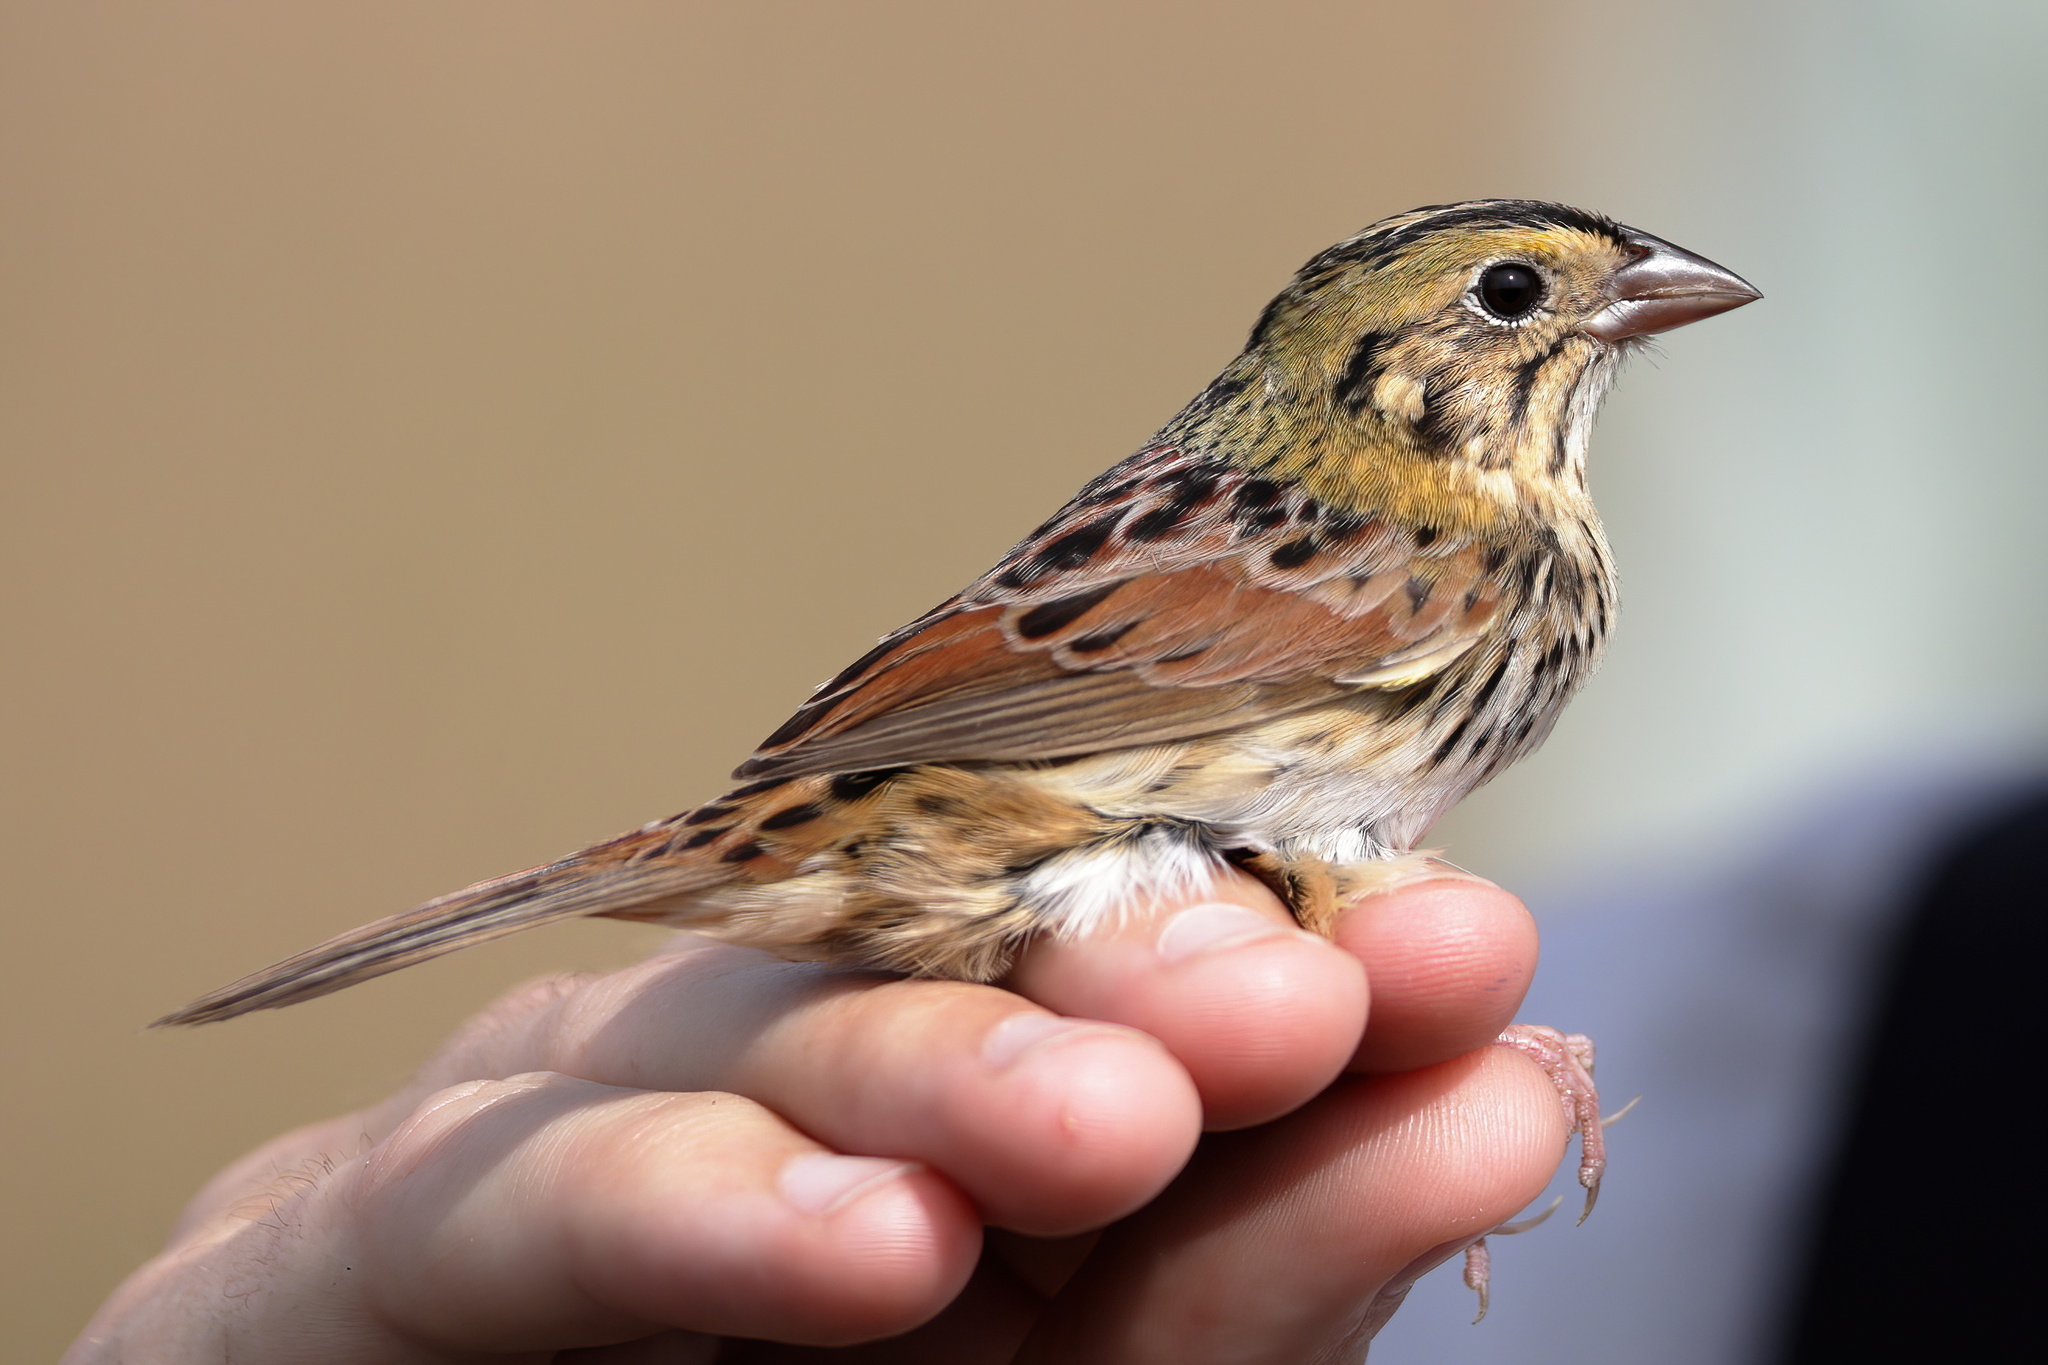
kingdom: Animalia
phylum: Chordata
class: Aves
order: Passeriformes
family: Passerellidae
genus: Centronyx
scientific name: Centronyx henslowii
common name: Henslow's sparrow
